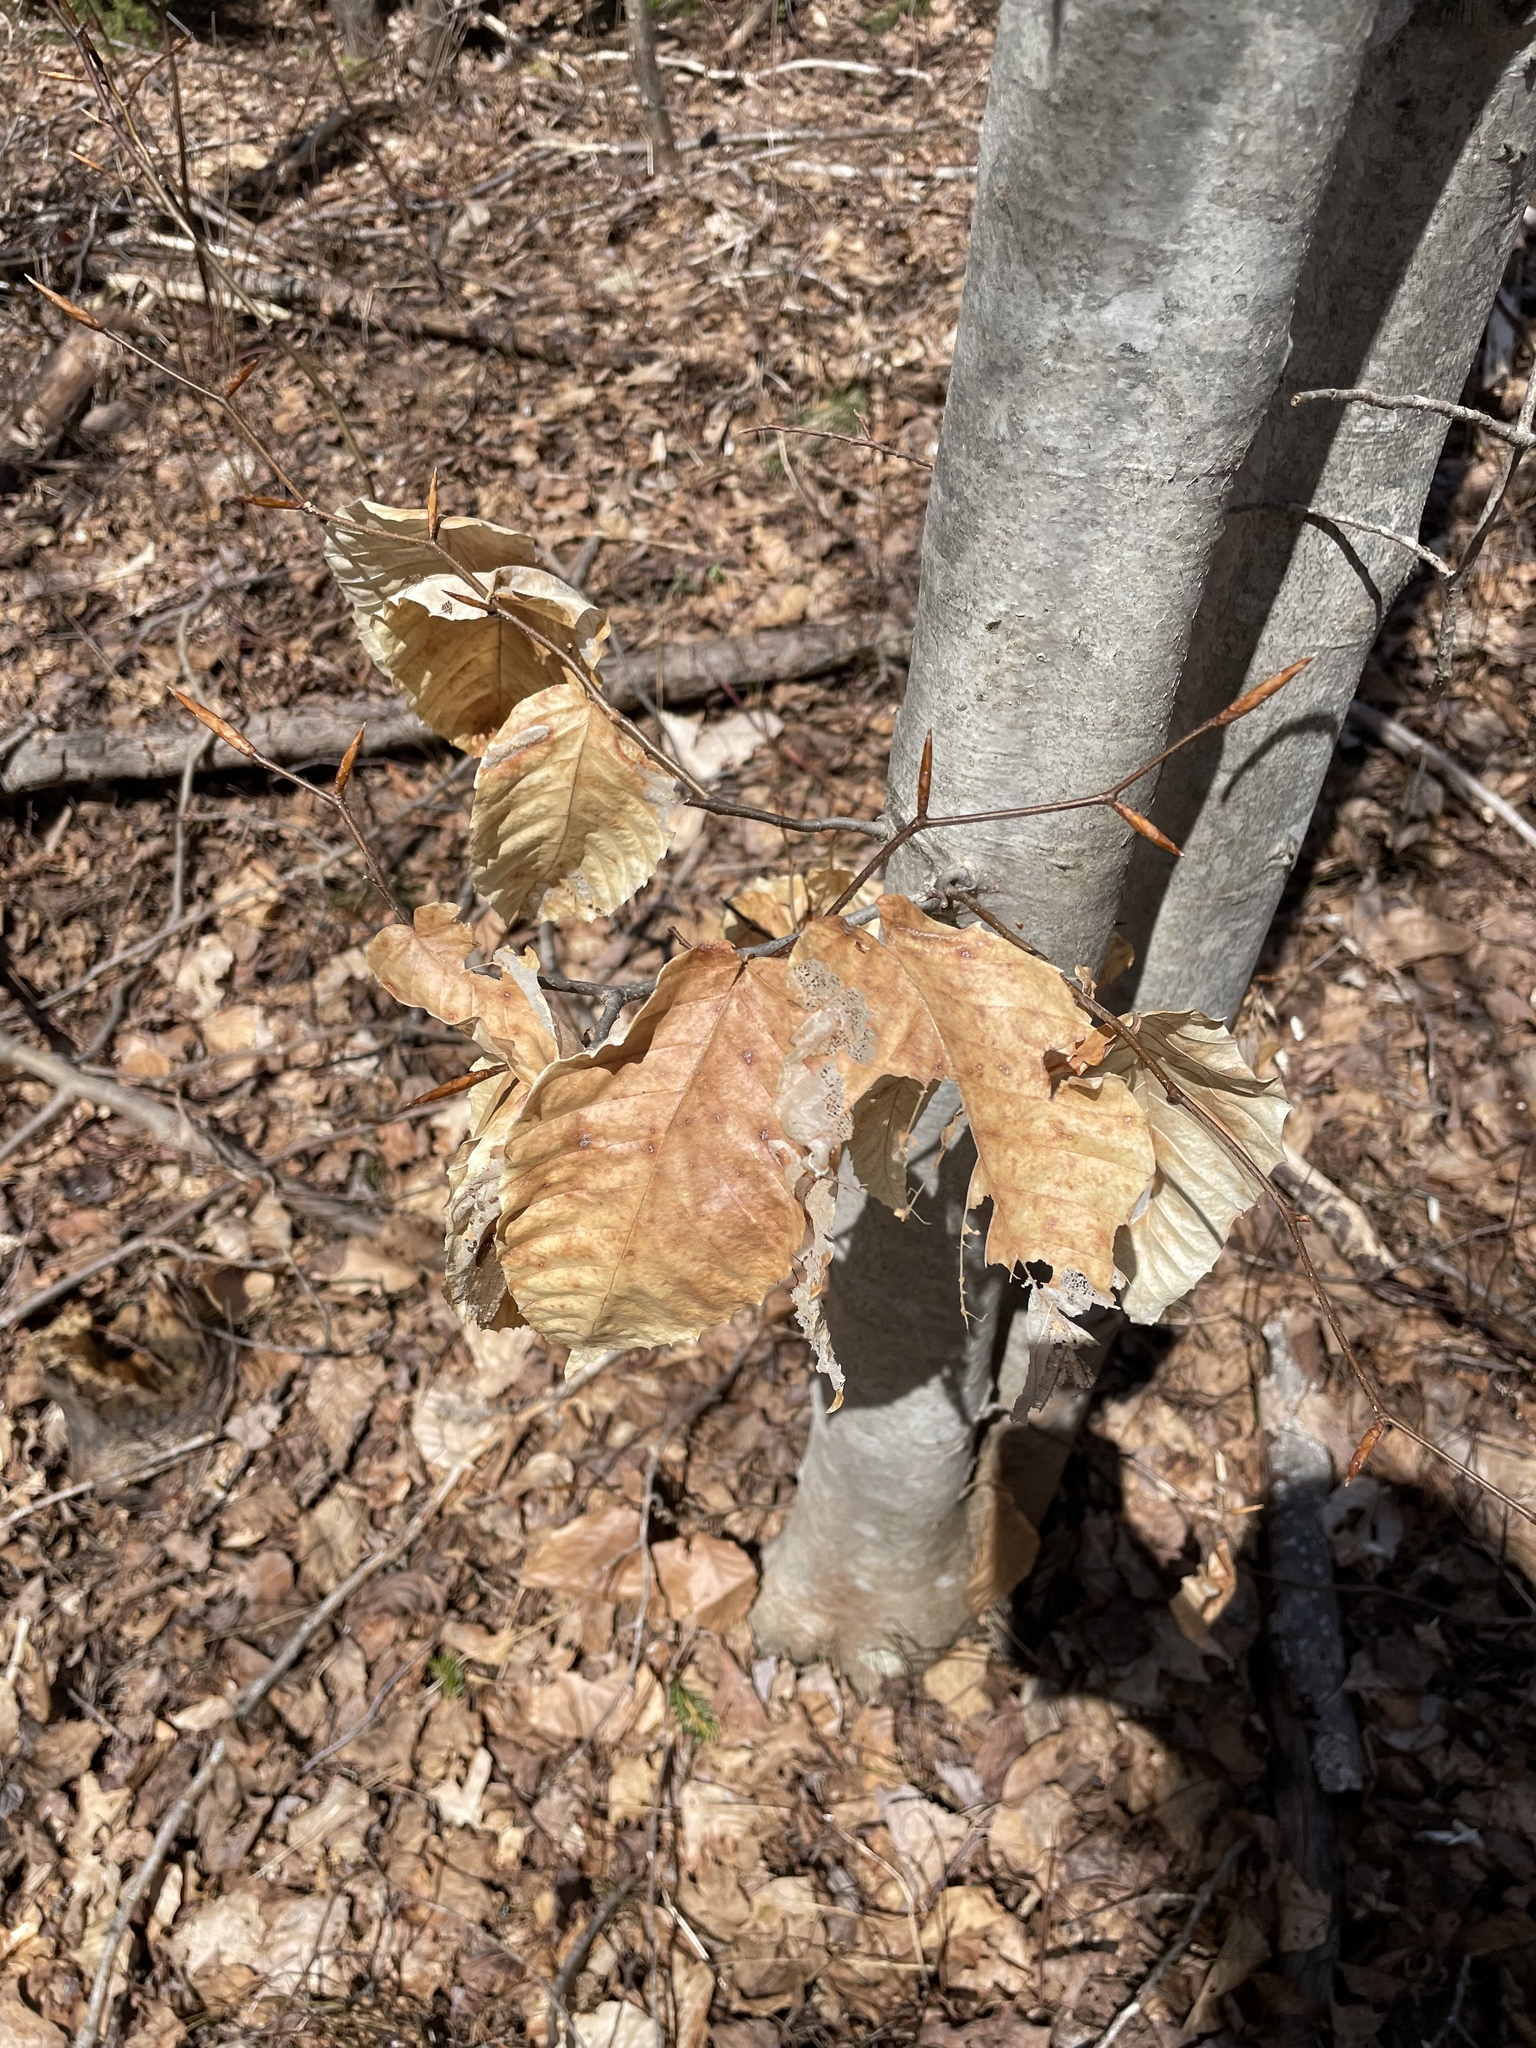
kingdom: Plantae
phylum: Tracheophyta
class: Magnoliopsida
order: Fagales
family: Fagaceae
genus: Fagus
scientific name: Fagus grandifolia
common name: American beech
